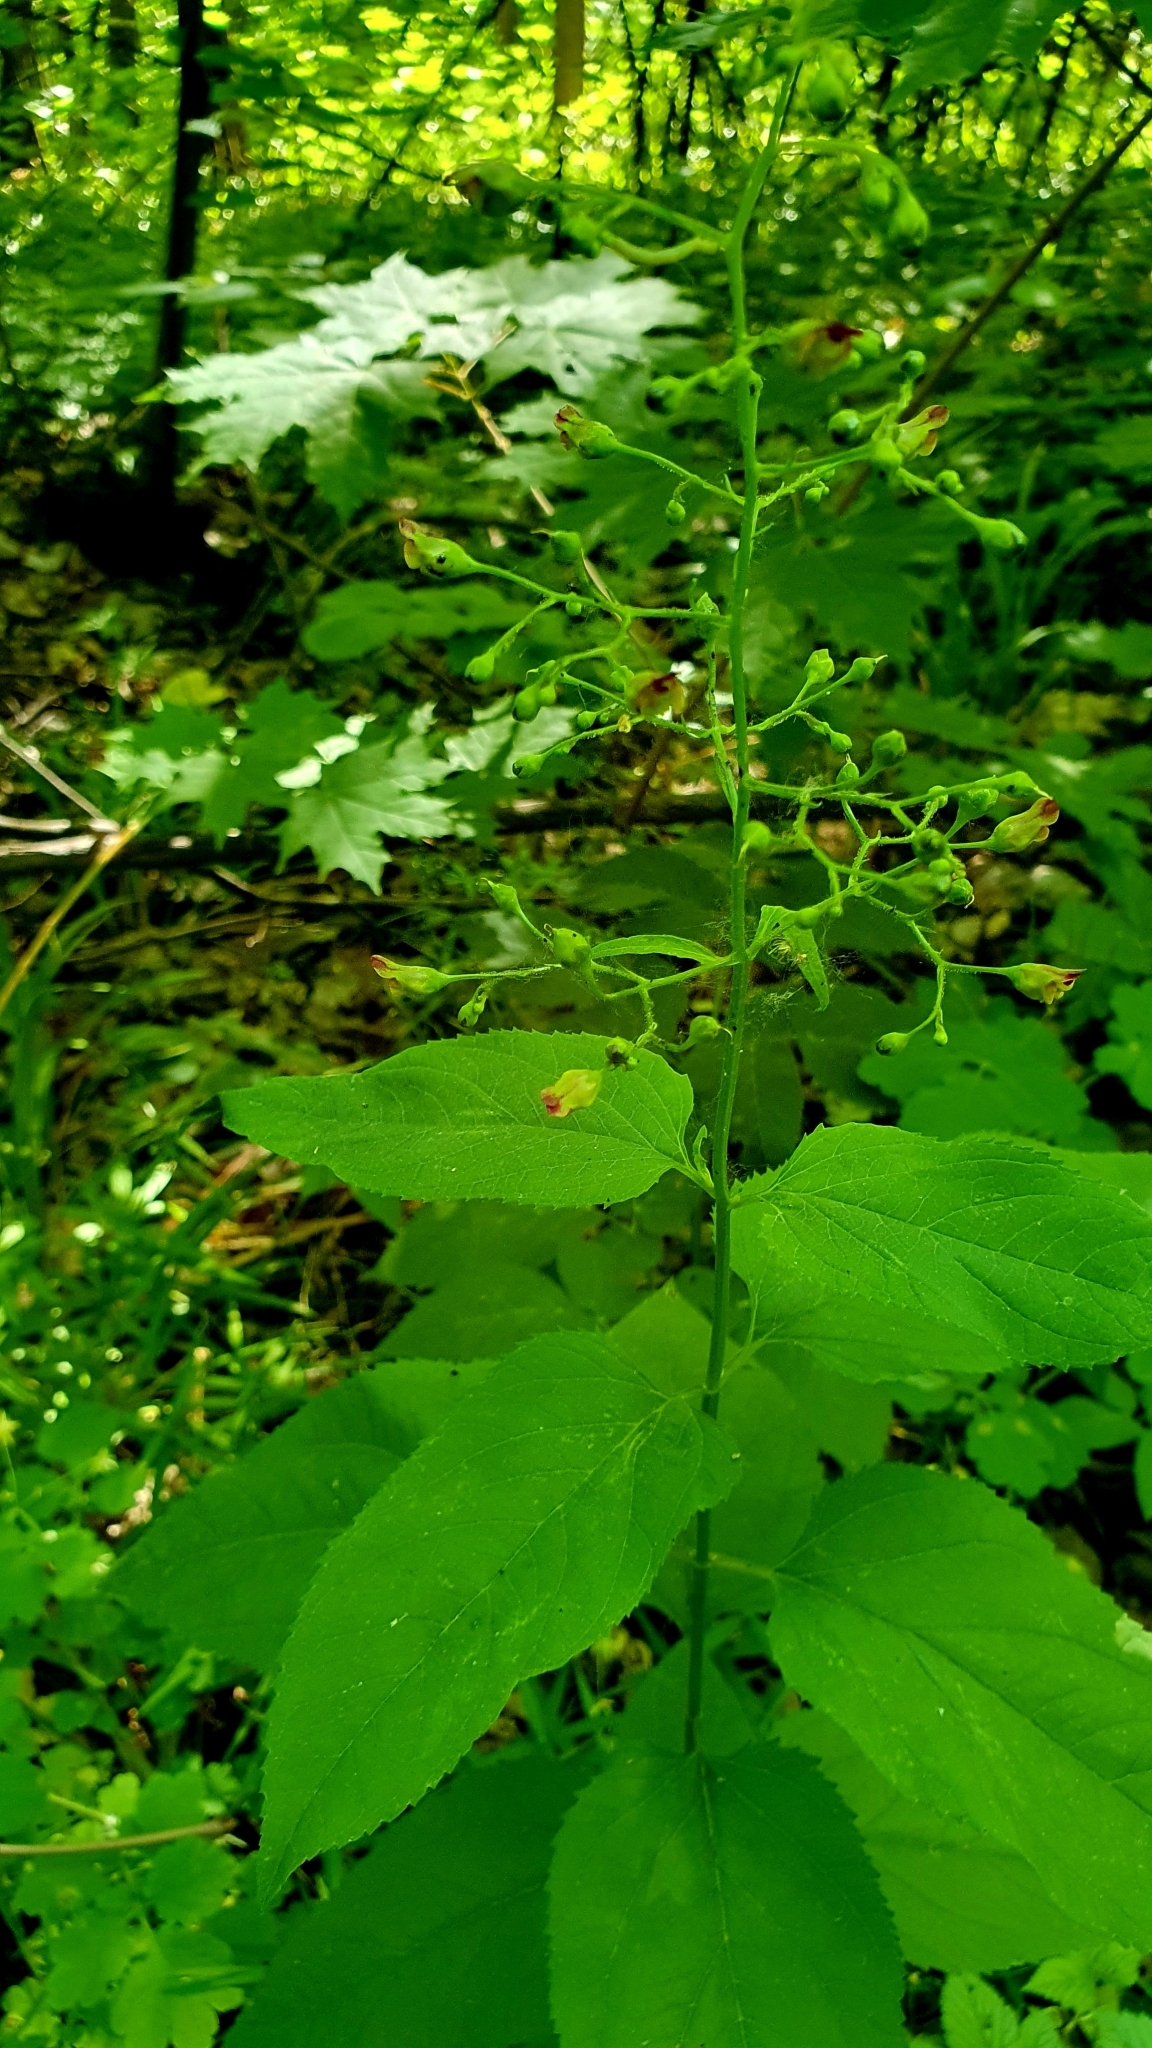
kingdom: Plantae
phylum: Tracheophyta
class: Magnoliopsida
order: Lamiales
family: Scrophulariaceae
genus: Scrophularia
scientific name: Scrophularia nodosa
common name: Common figwort
